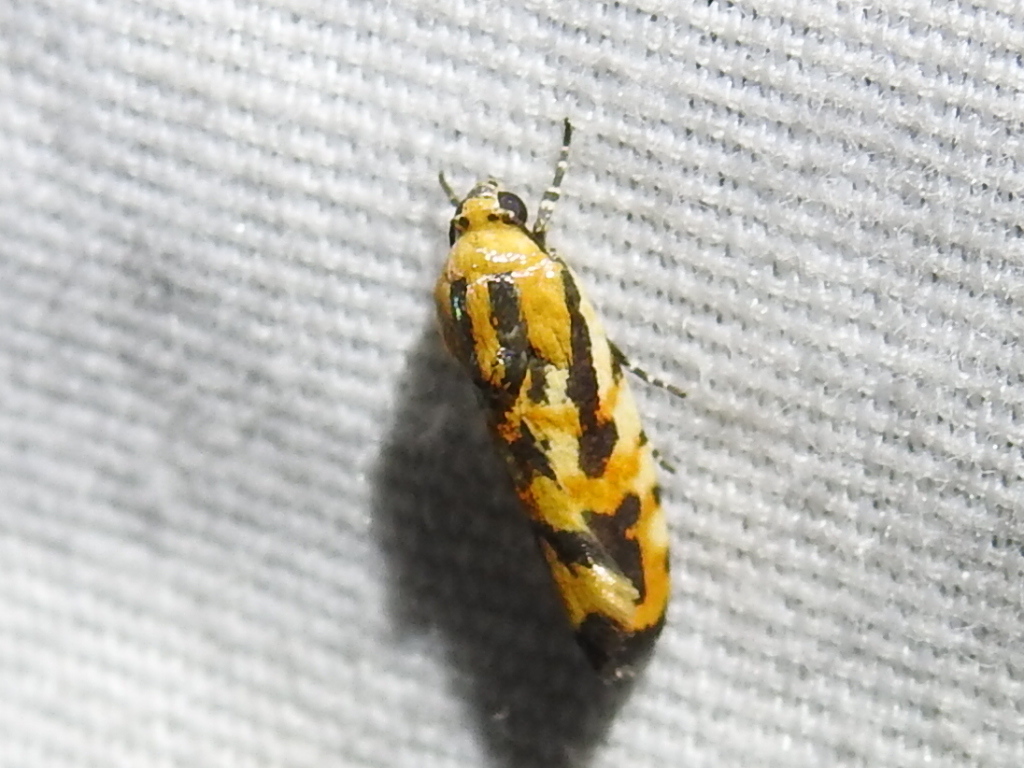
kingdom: Animalia
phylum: Arthropoda
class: Insecta
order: Lepidoptera
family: Noctuidae
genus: Acontia
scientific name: Acontia leo
